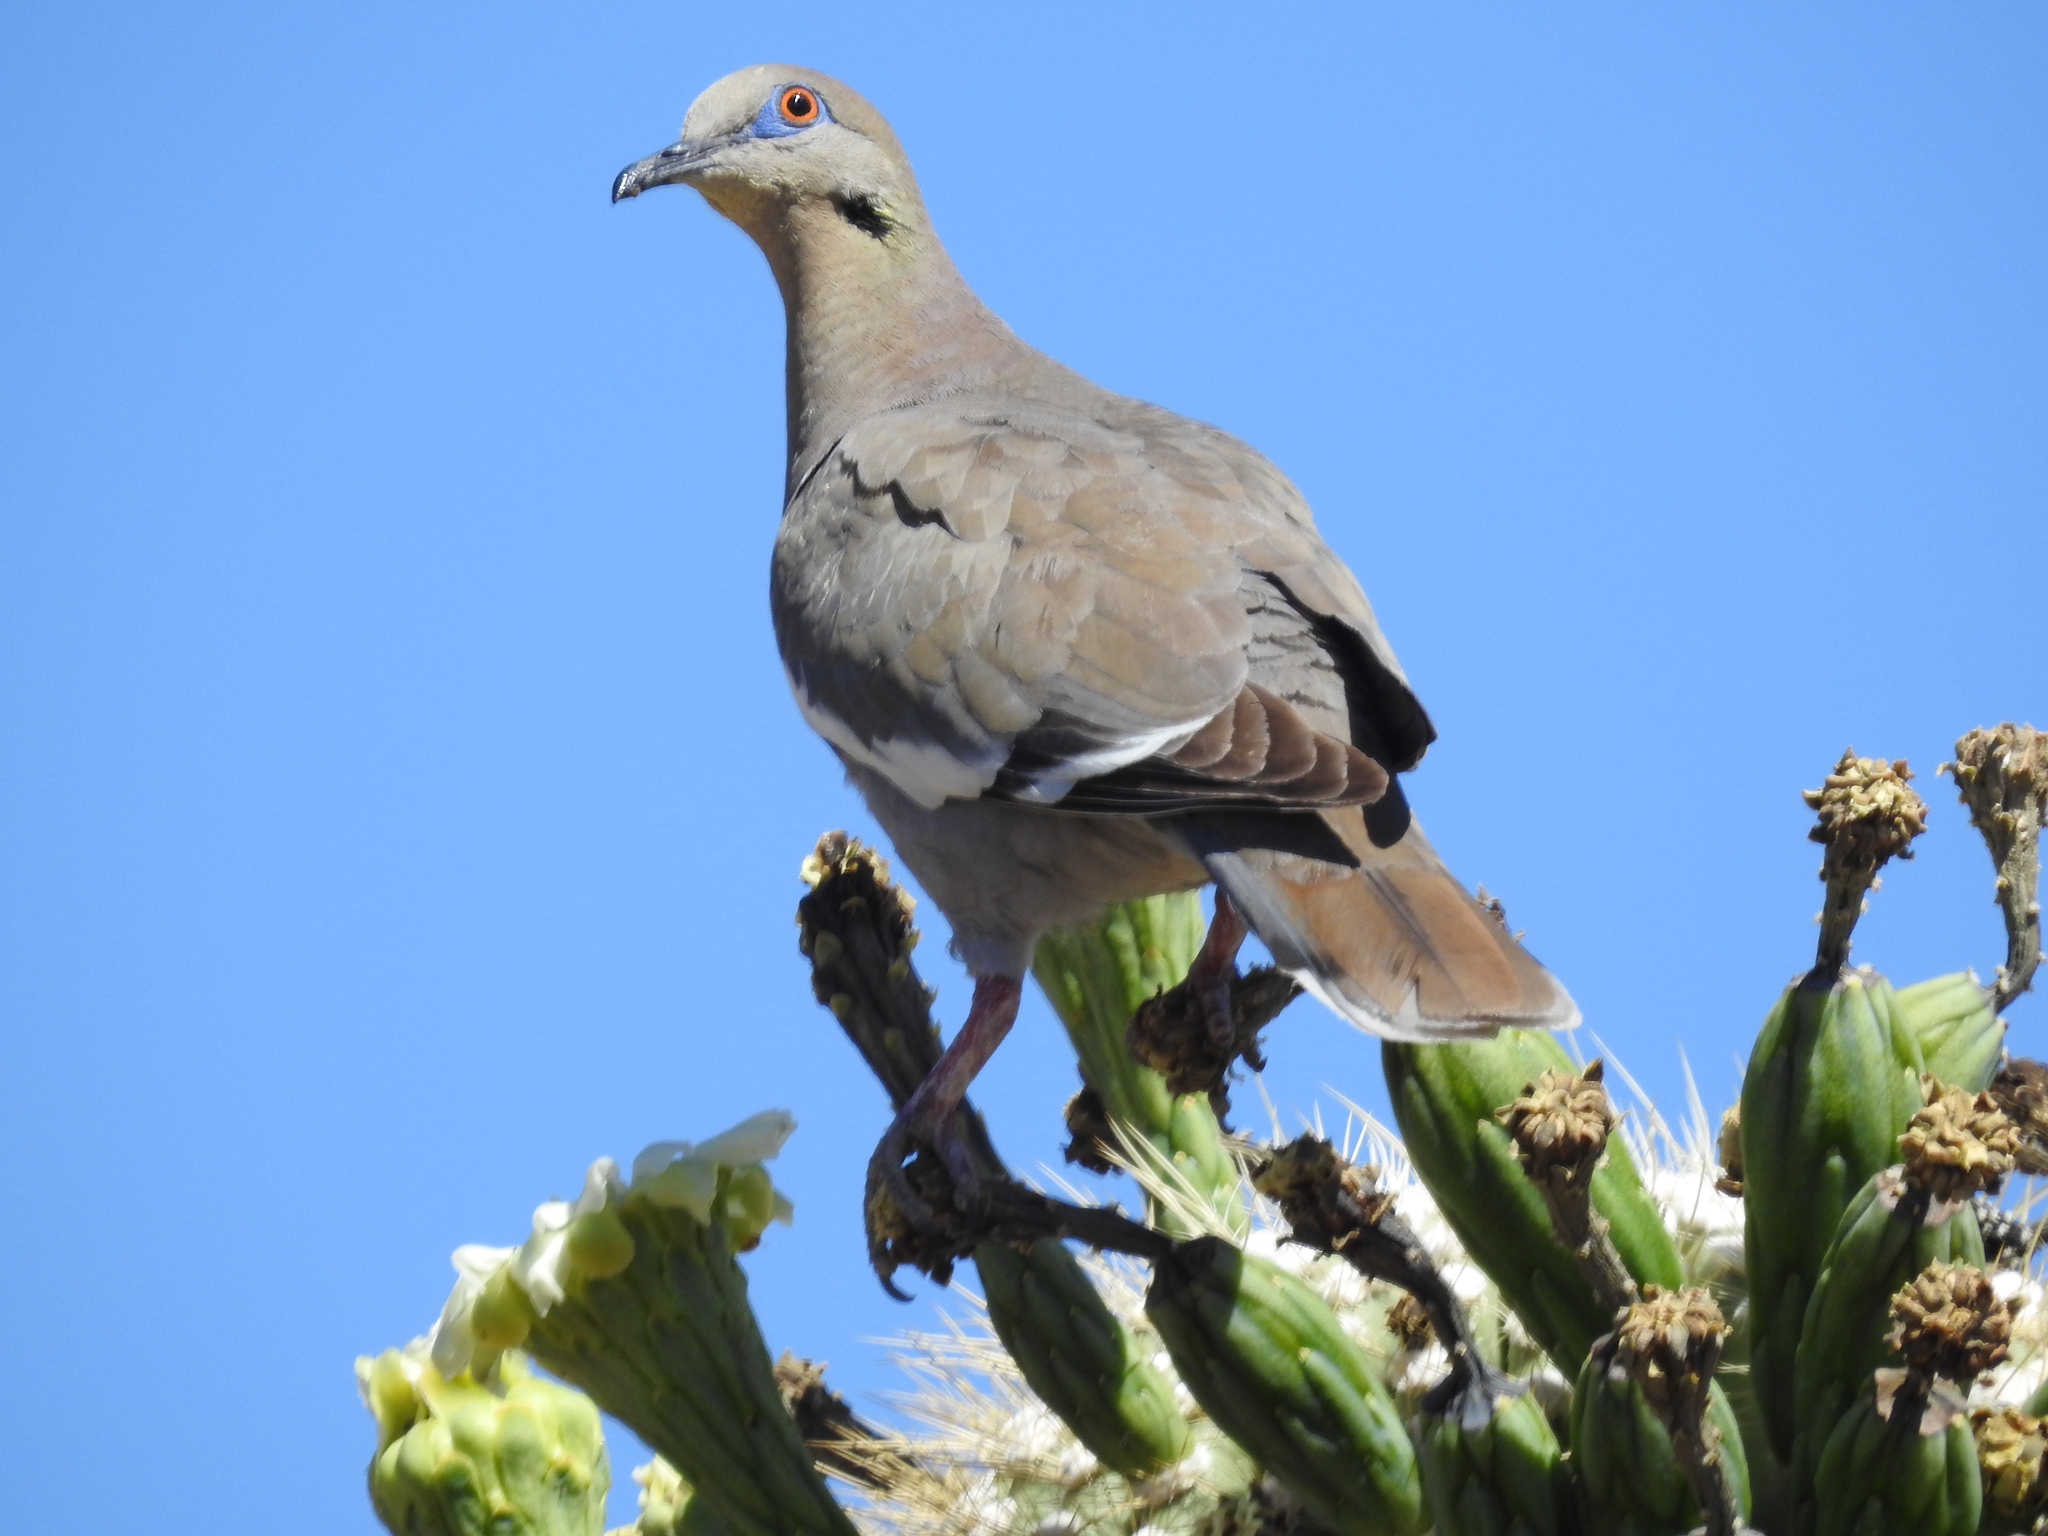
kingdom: Animalia
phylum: Chordata
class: Aves
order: Columbiformes
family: Columbidae
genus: Zenaida
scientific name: Zenaida asiatica
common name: White-winged dove
